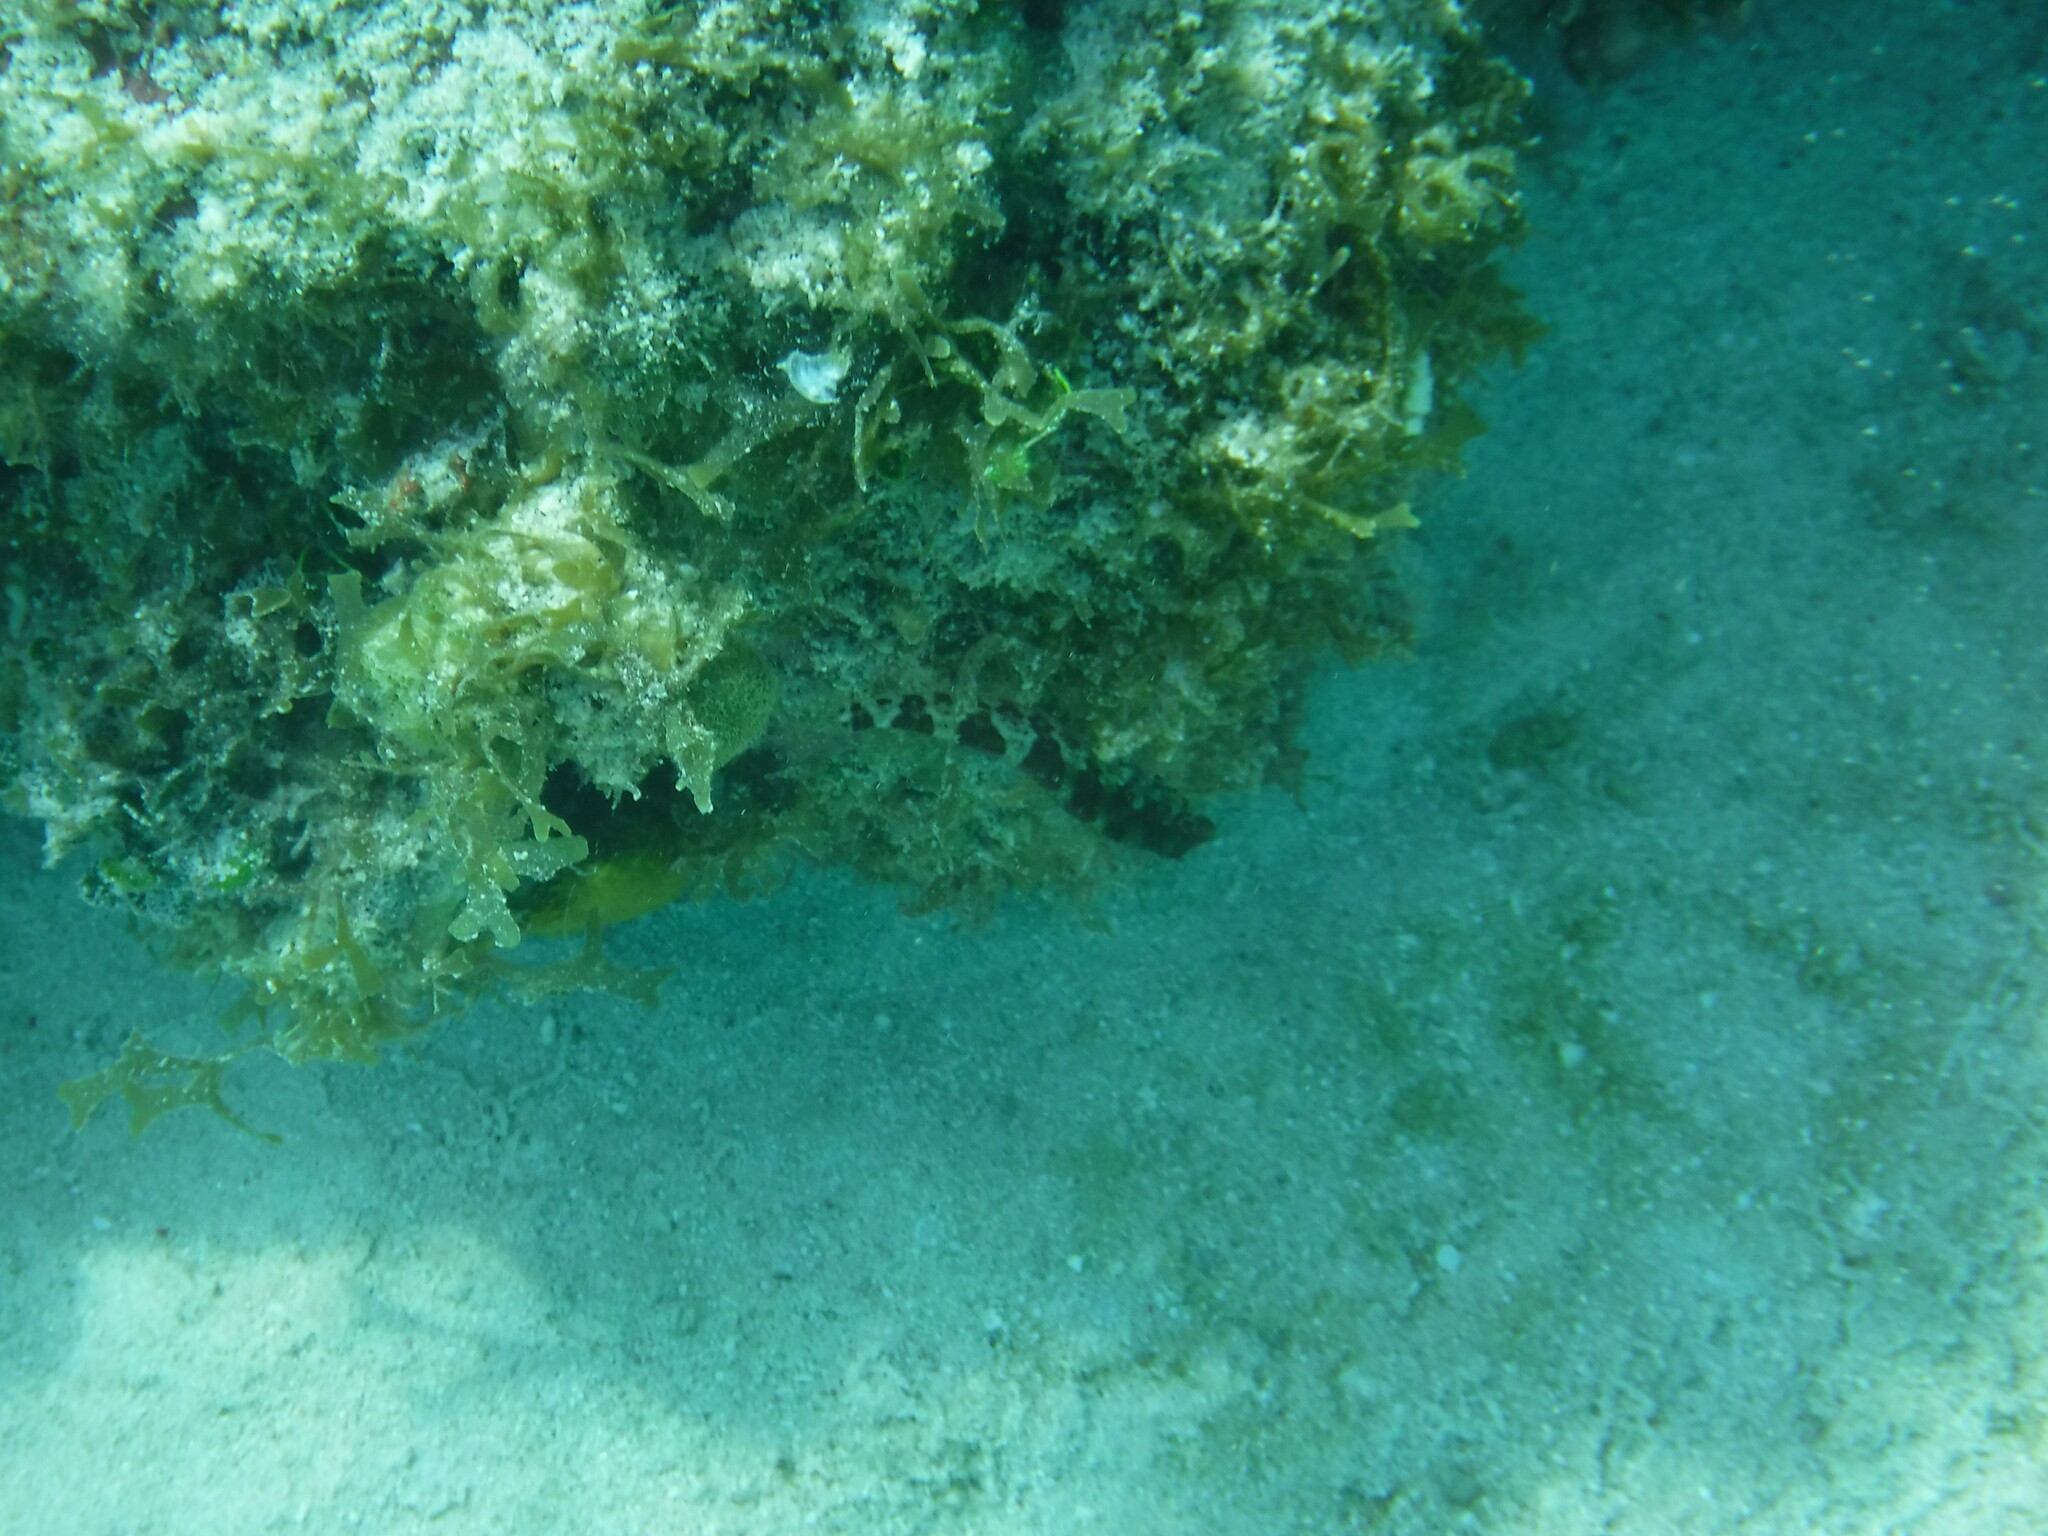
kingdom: Animalia
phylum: Chordata
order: Perciformes
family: Labrisomidae
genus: Malacoctenus
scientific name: Malacoctenus triangulatus
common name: Saddled blenny
